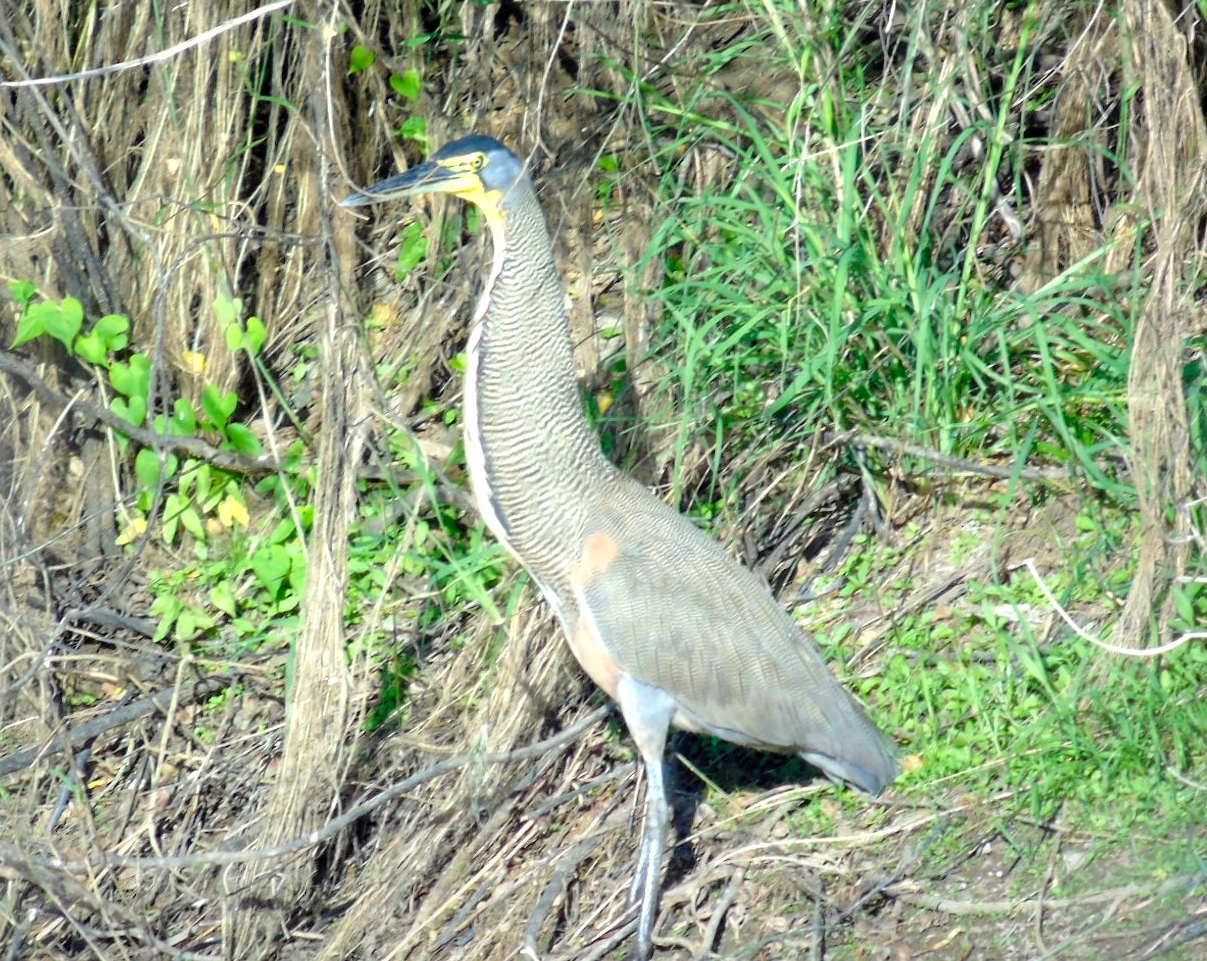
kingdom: Animalia
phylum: Chordata
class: Aves
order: Pelecaniformes
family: Ardeidae
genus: Tigrisoma
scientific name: Tigrisoma mexicanum
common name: Bare-throated tiger-heron
